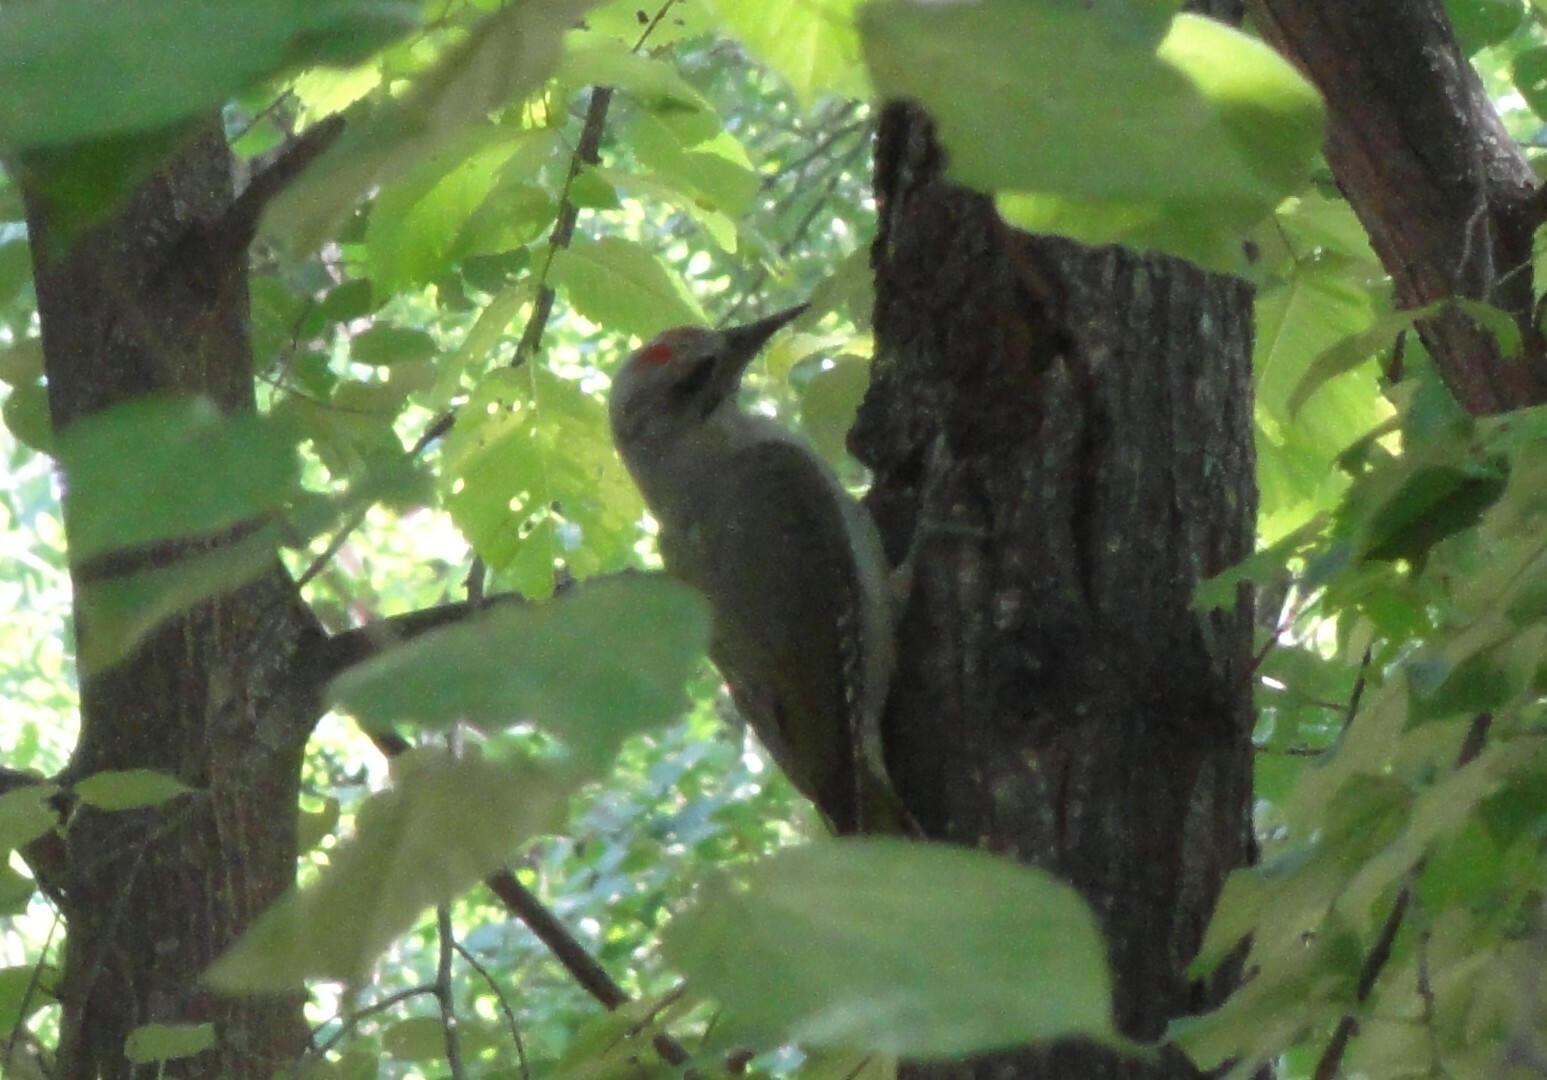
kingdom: Animalia
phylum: Chordata
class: Aves
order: Piciformes
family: Picidae
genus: Picus
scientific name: Picus canus
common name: Grey-headed woodpecker
